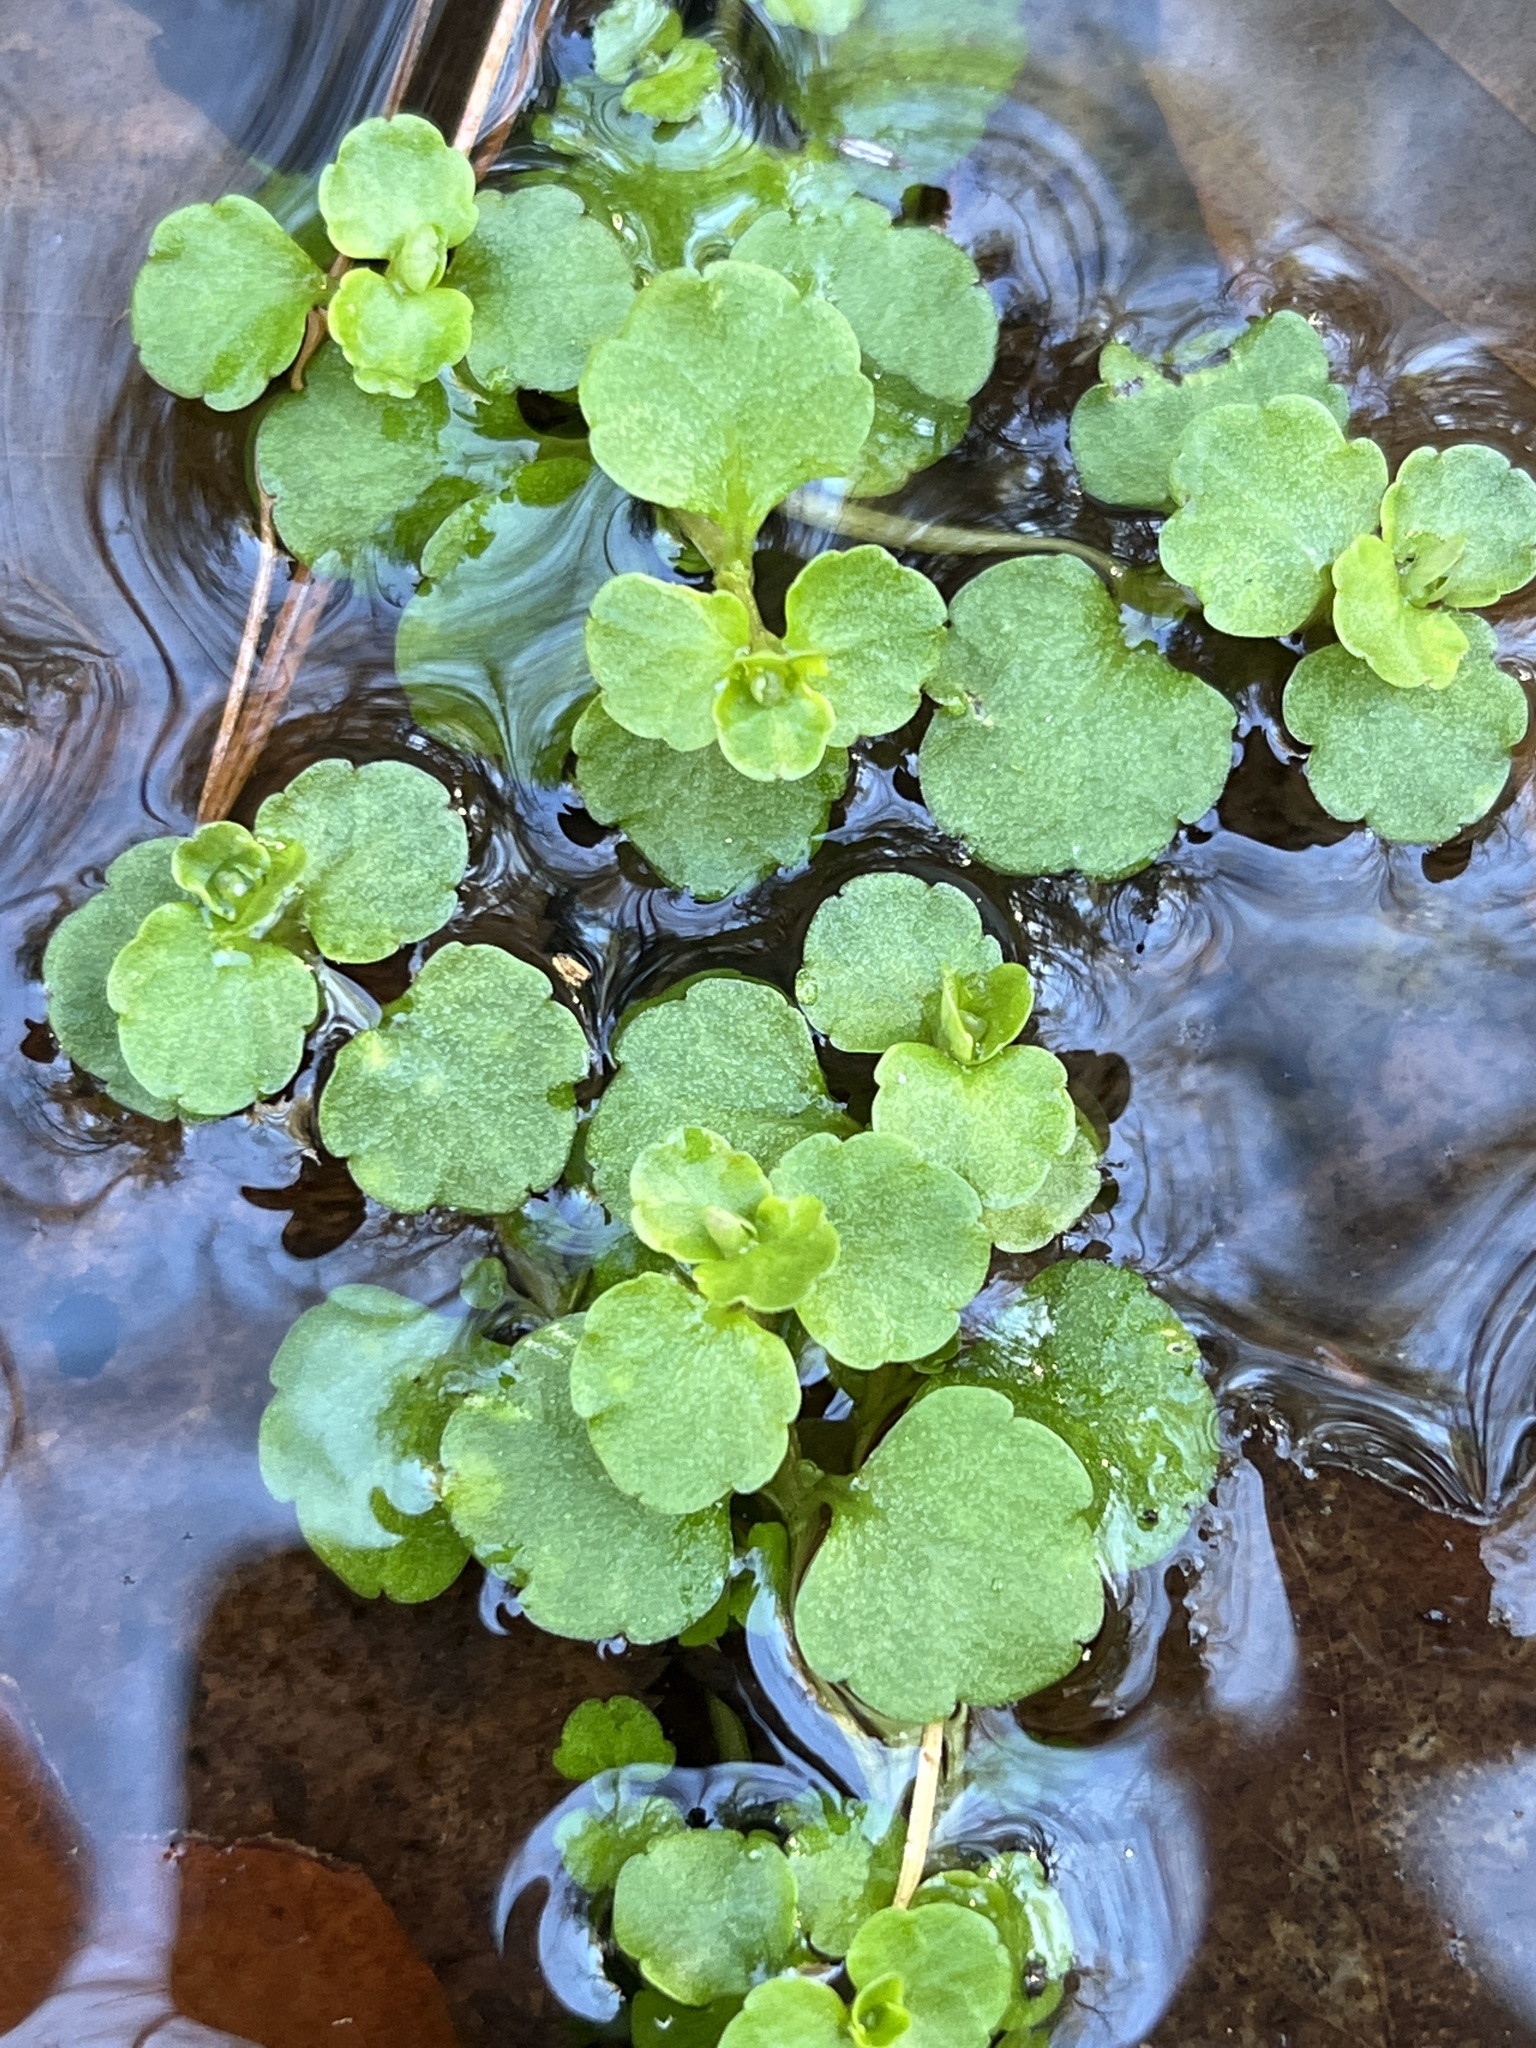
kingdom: Plantae
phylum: Tracheophyta
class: Magnoliopsida
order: Saxifragales
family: Saxifragaceae
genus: Chrysosplenium
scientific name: Chrysosplenium americanum
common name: American golden-saxifrage
